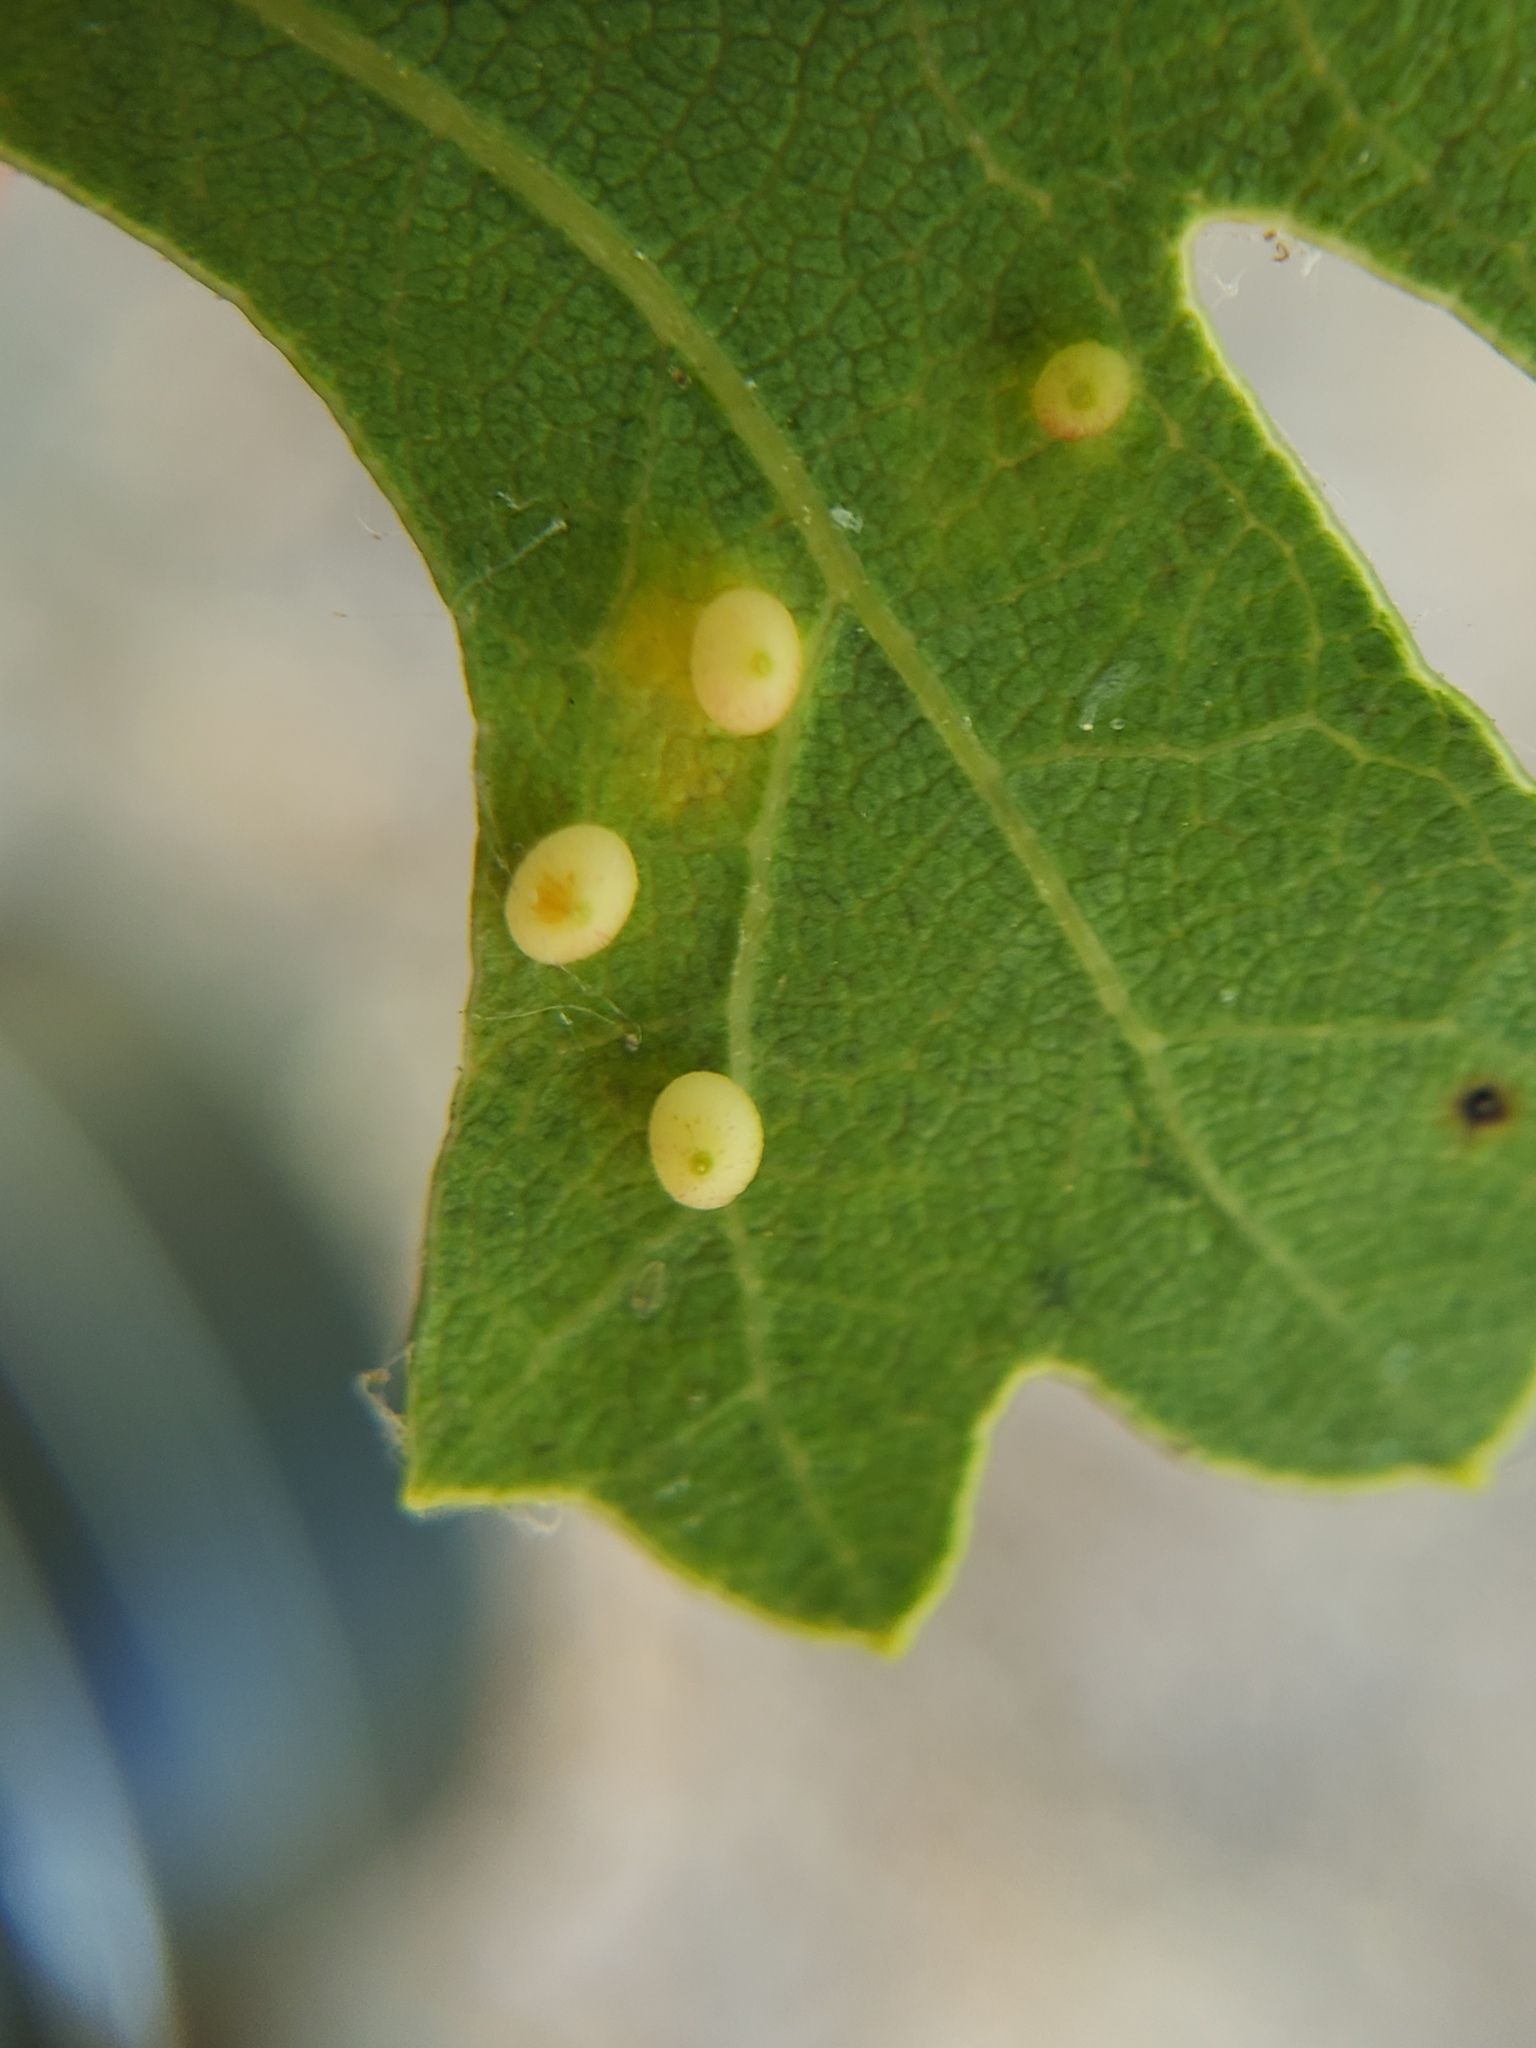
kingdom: Animalia
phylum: Arthropoda
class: Insecta
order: Hymenoptera
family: Cynipidae
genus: Neuroterus
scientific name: Neuroterus saltarius
